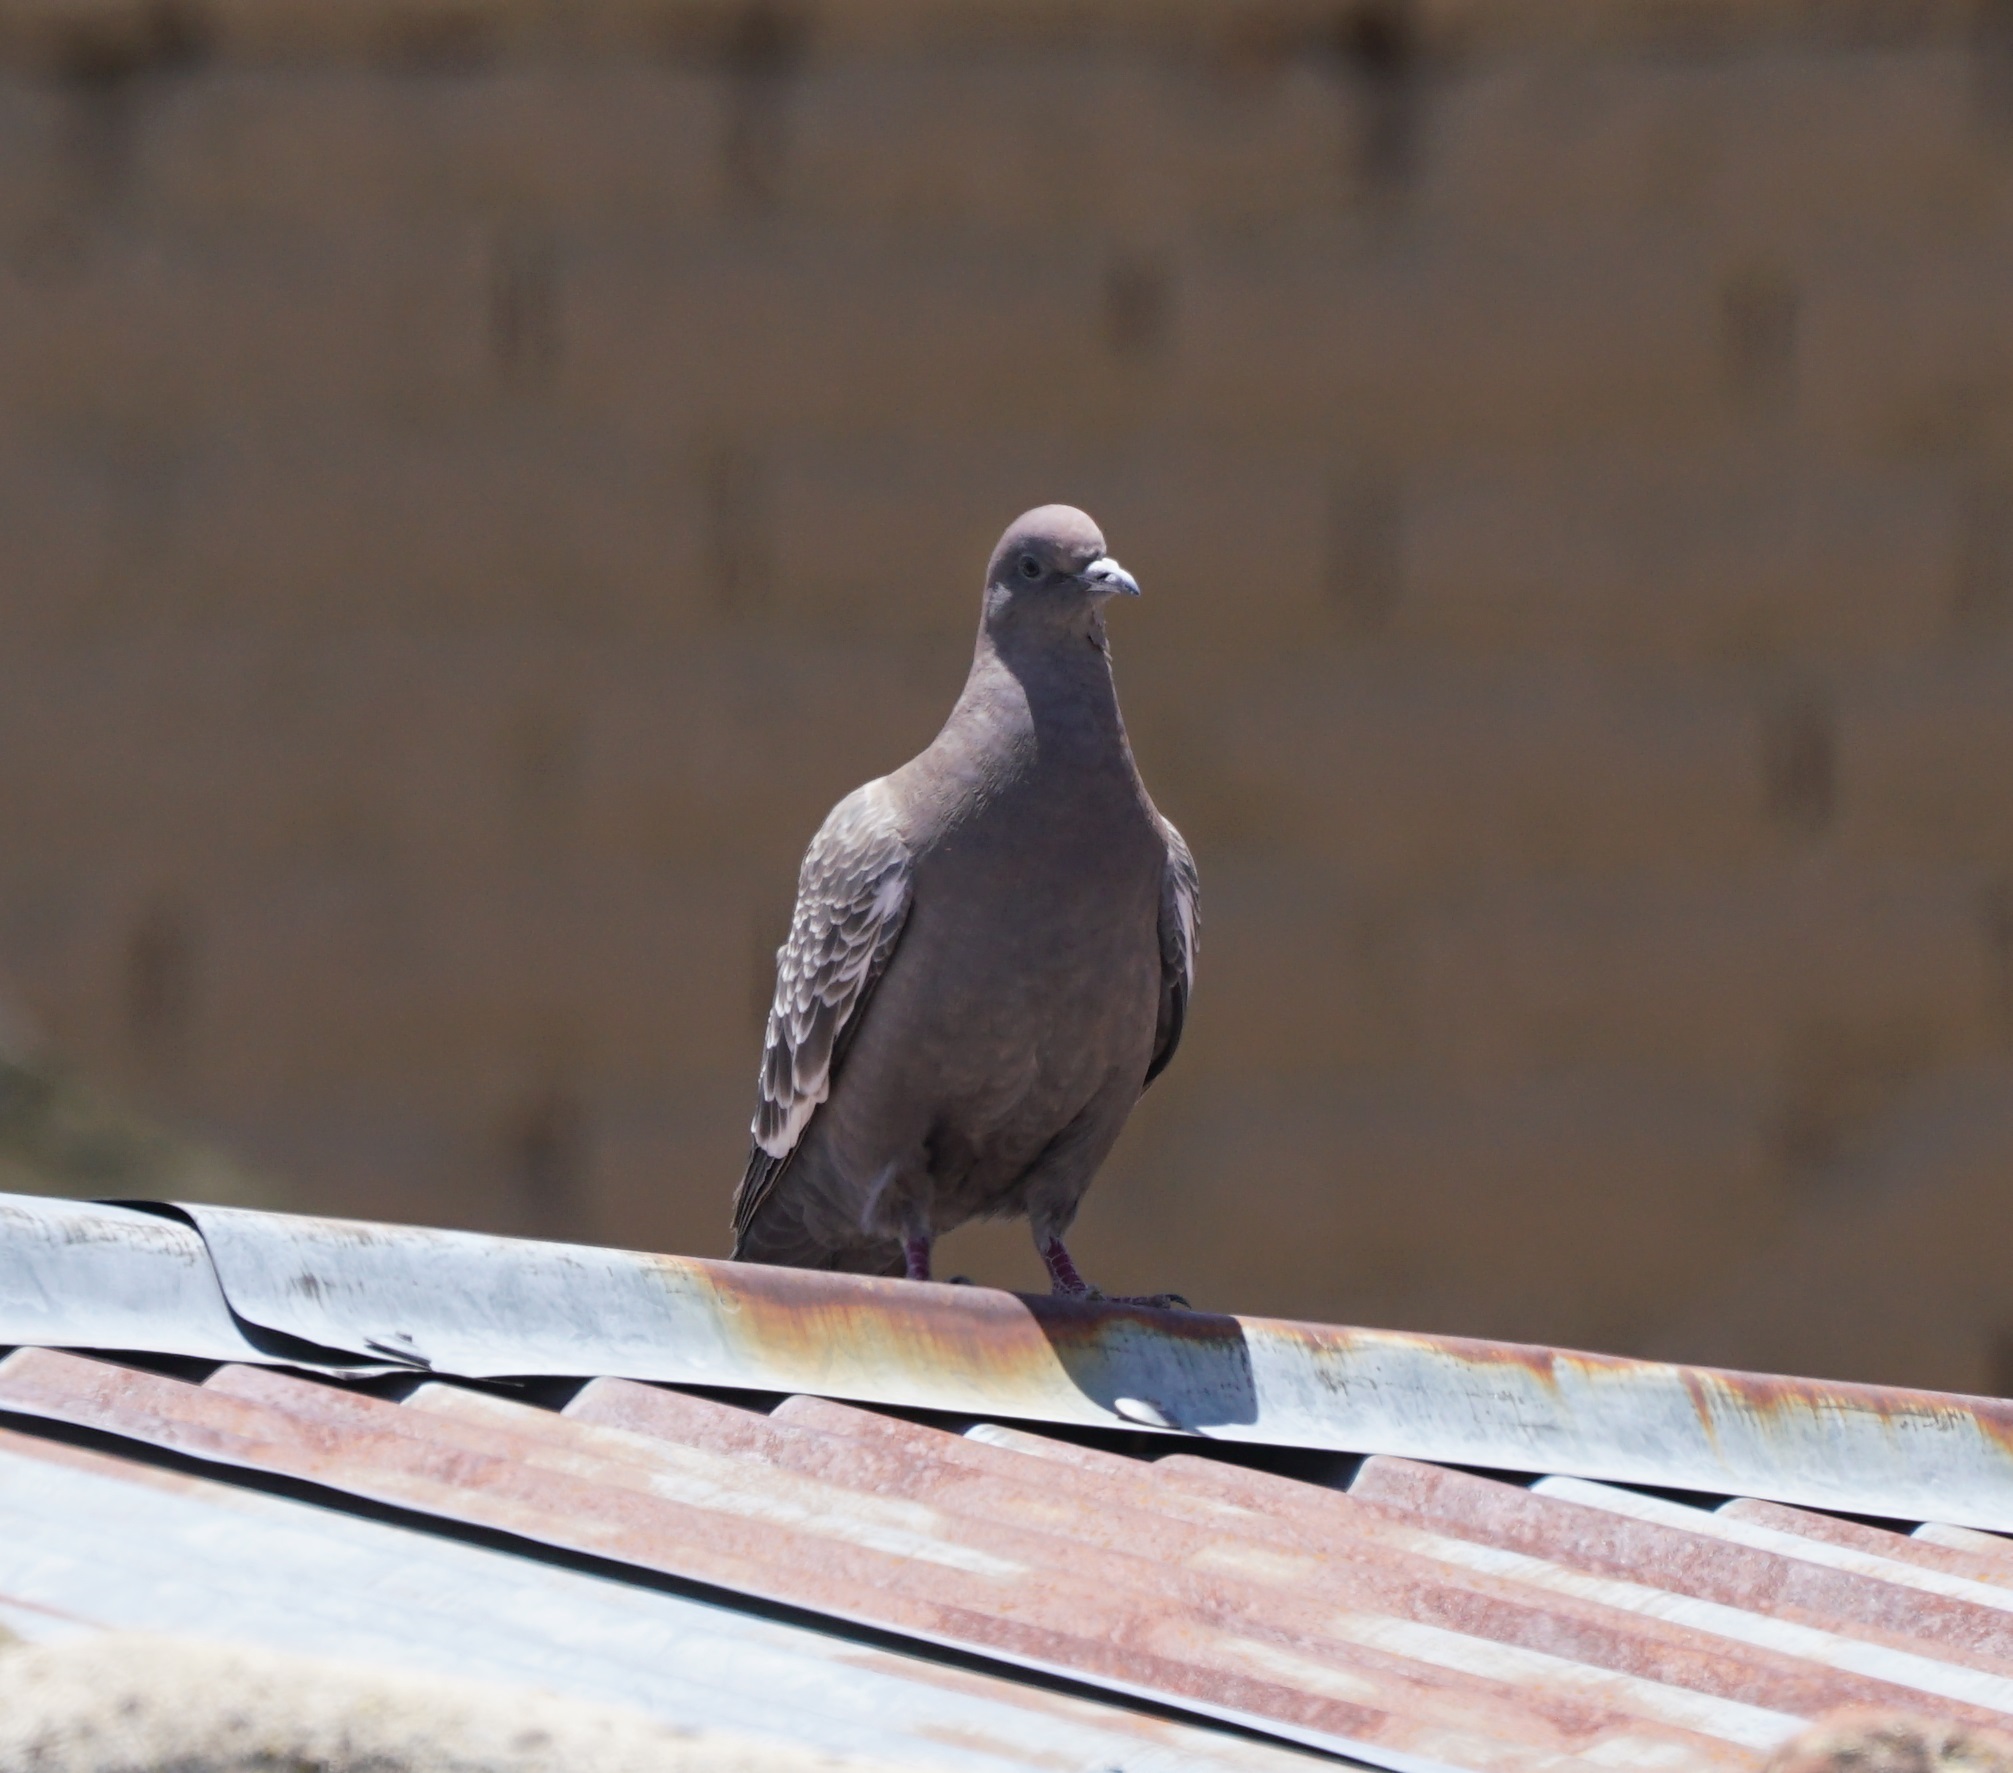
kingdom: Animalia
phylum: Chordata
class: Aves
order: Columbiformes
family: Columbidae
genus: Patagioenas
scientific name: Patagioenas maculosa
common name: Spot-winged pigeon
